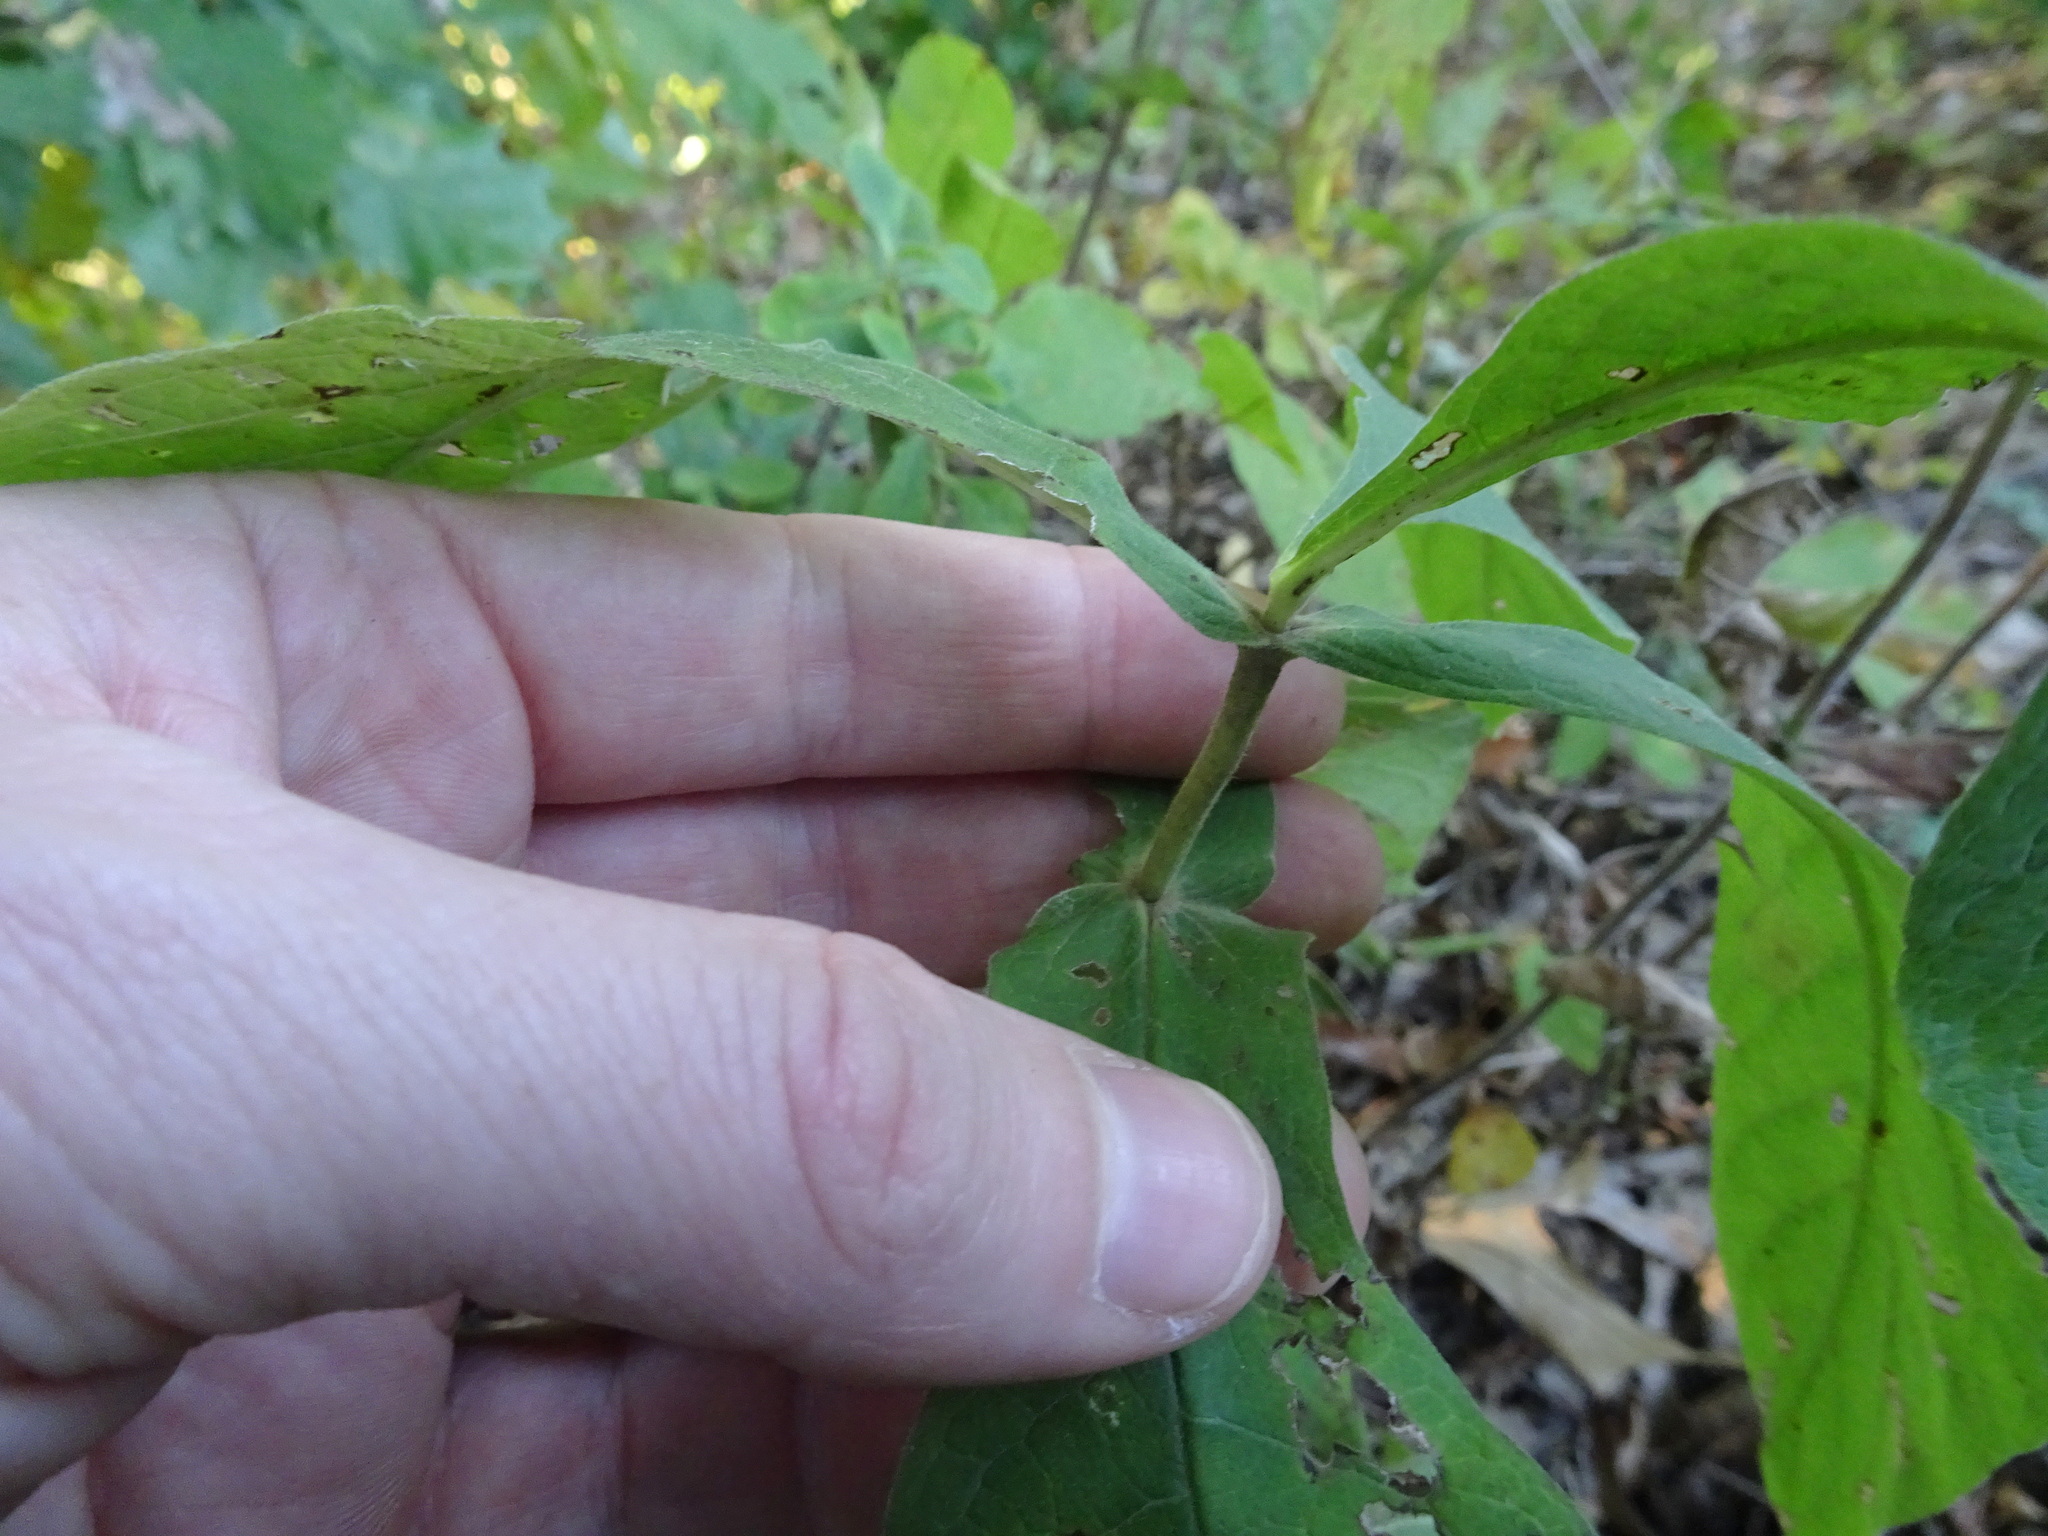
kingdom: Plantae
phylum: Tracheophyta
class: Magnoliopsida
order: Dipsacales
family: Caprifoliaceae
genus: Triosteum
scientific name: Triosteum perfoliatum
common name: Common horse-gentian
